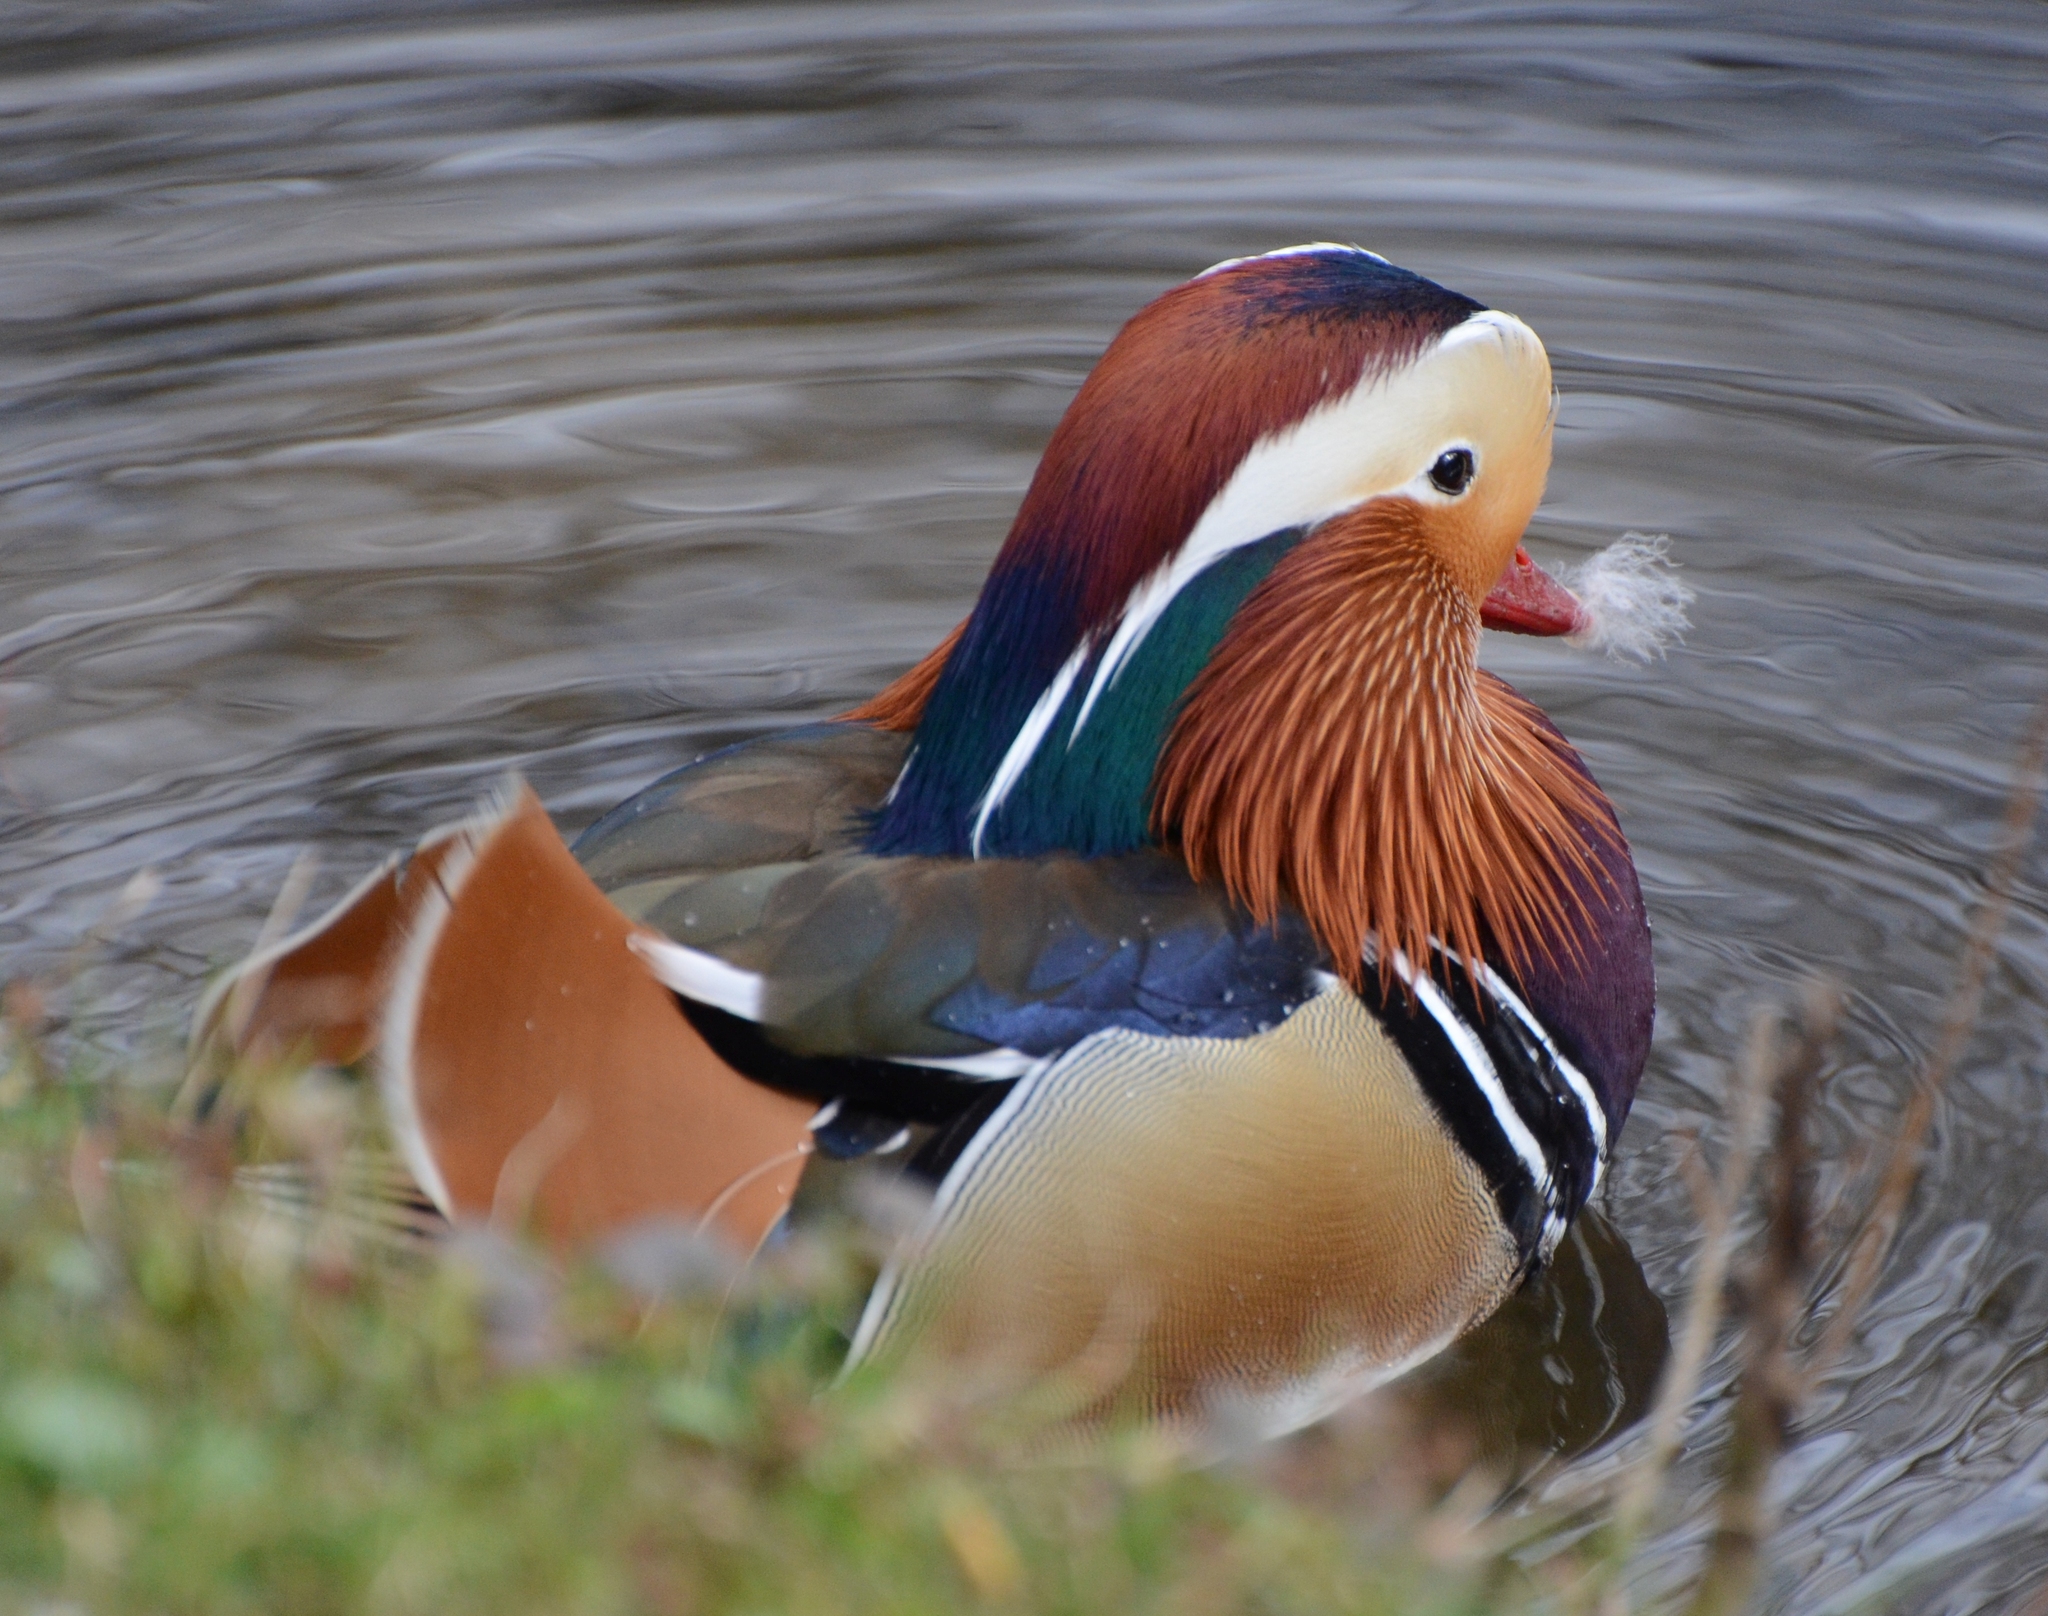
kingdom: Animalia
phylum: Chordata
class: Aves
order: Anseriformes
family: Anatidae
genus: Aix
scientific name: Aix galericulata
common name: Mandarin duck
